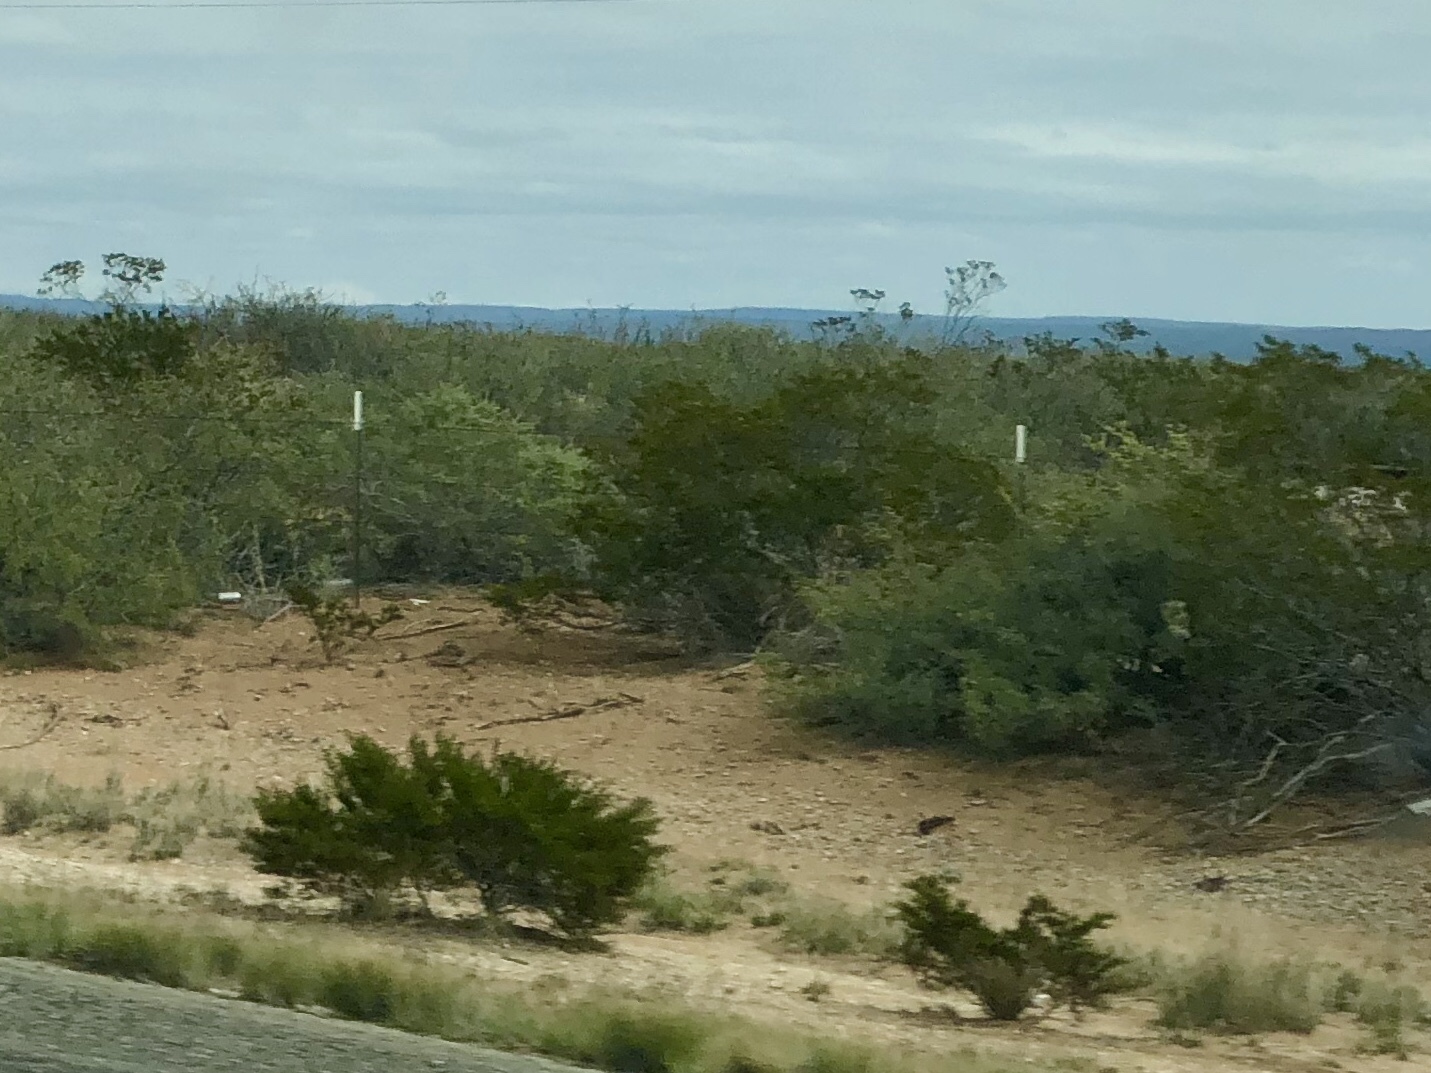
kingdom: Plantae
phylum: Tracheophyta
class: Magnoliopsida
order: Zygophyllales
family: Zygophyllaceae
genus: Larrea
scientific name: Larrea tridentata
